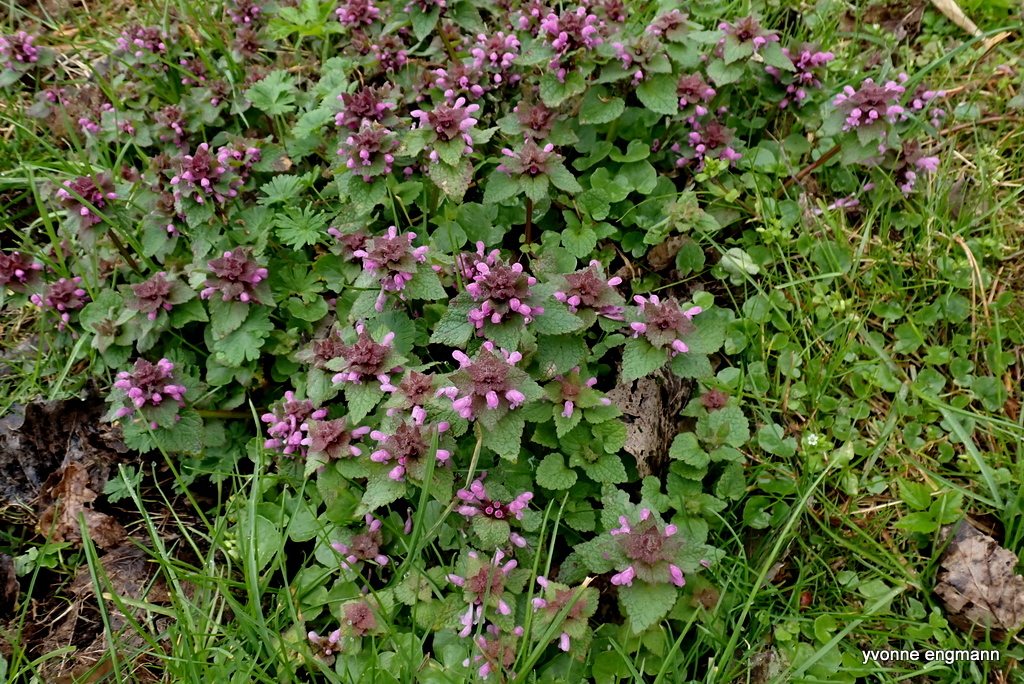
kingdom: Plantae
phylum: Tracheophyta
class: Magnoliopsida
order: Lamiales
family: Lamiaceae
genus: Lamium
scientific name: Lamium purpureum
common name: Red dead-nettle
